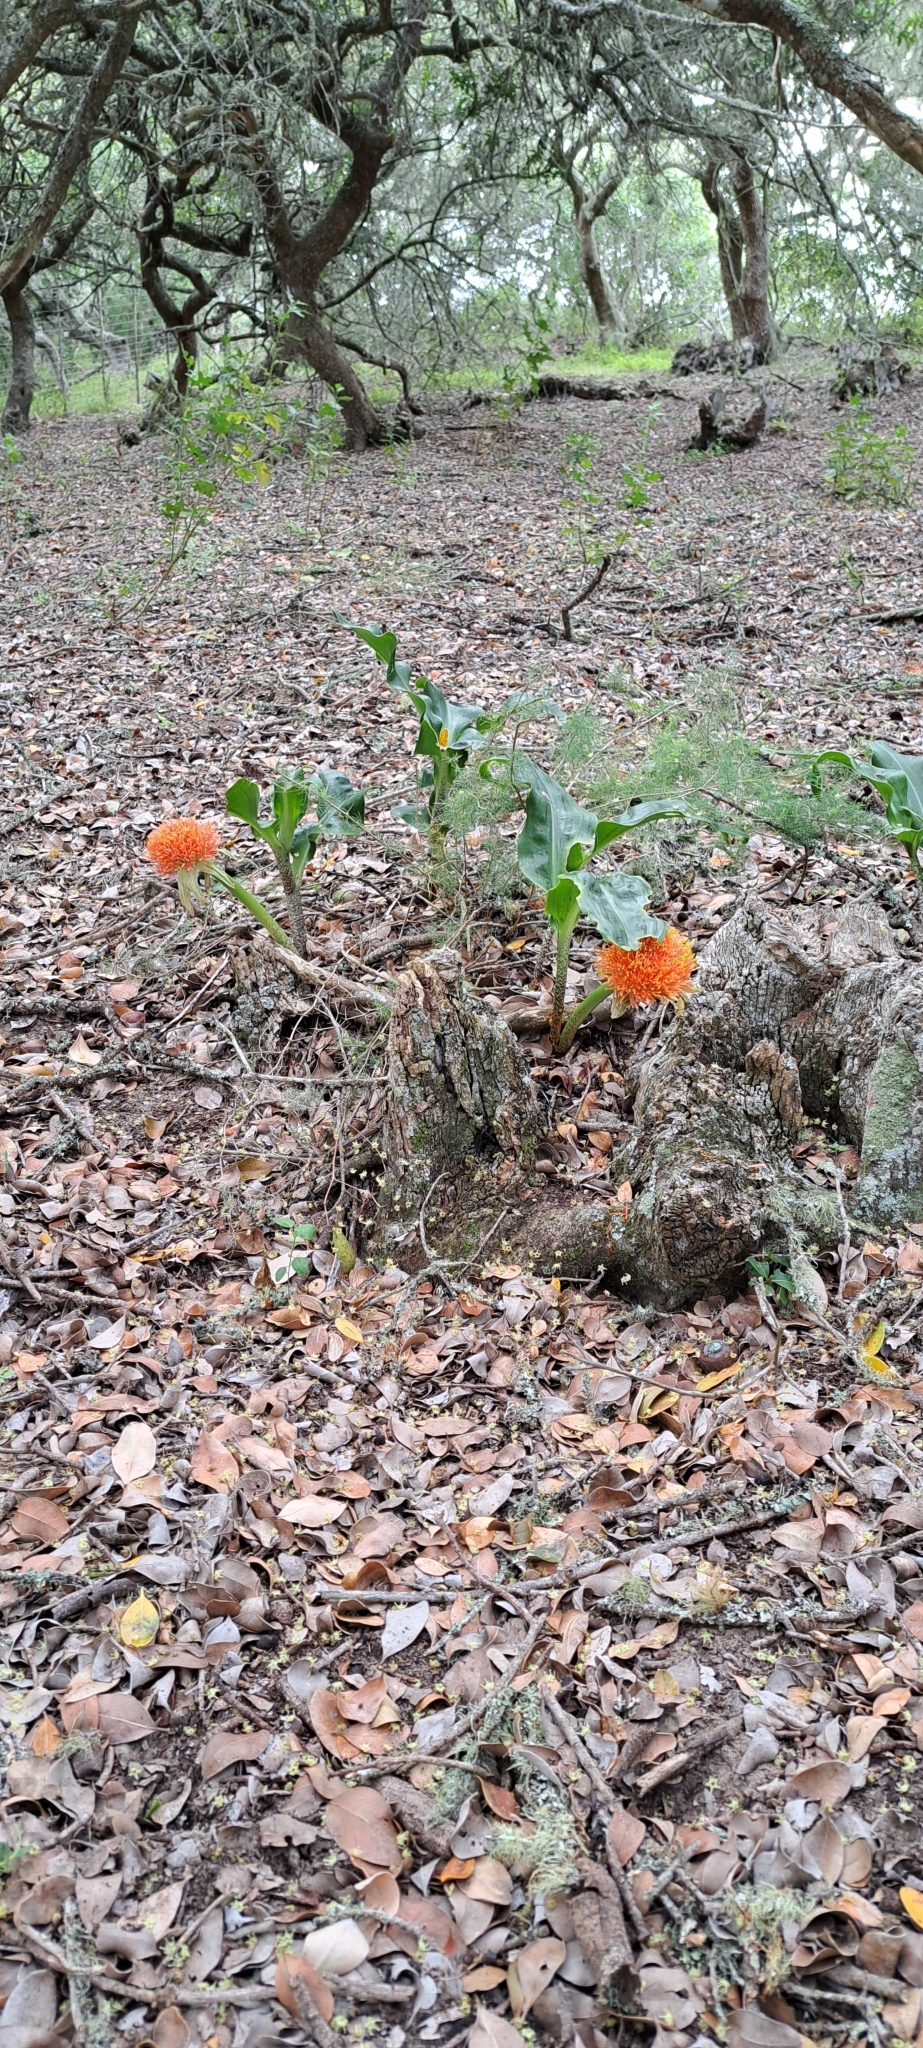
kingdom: Plantae
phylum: Tracheophyta
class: Liliopsida
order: Asparagales
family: Amaryllidaceae
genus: Scadoxus
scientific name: Scadoxus puniceus
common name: Royal-paintbrush
